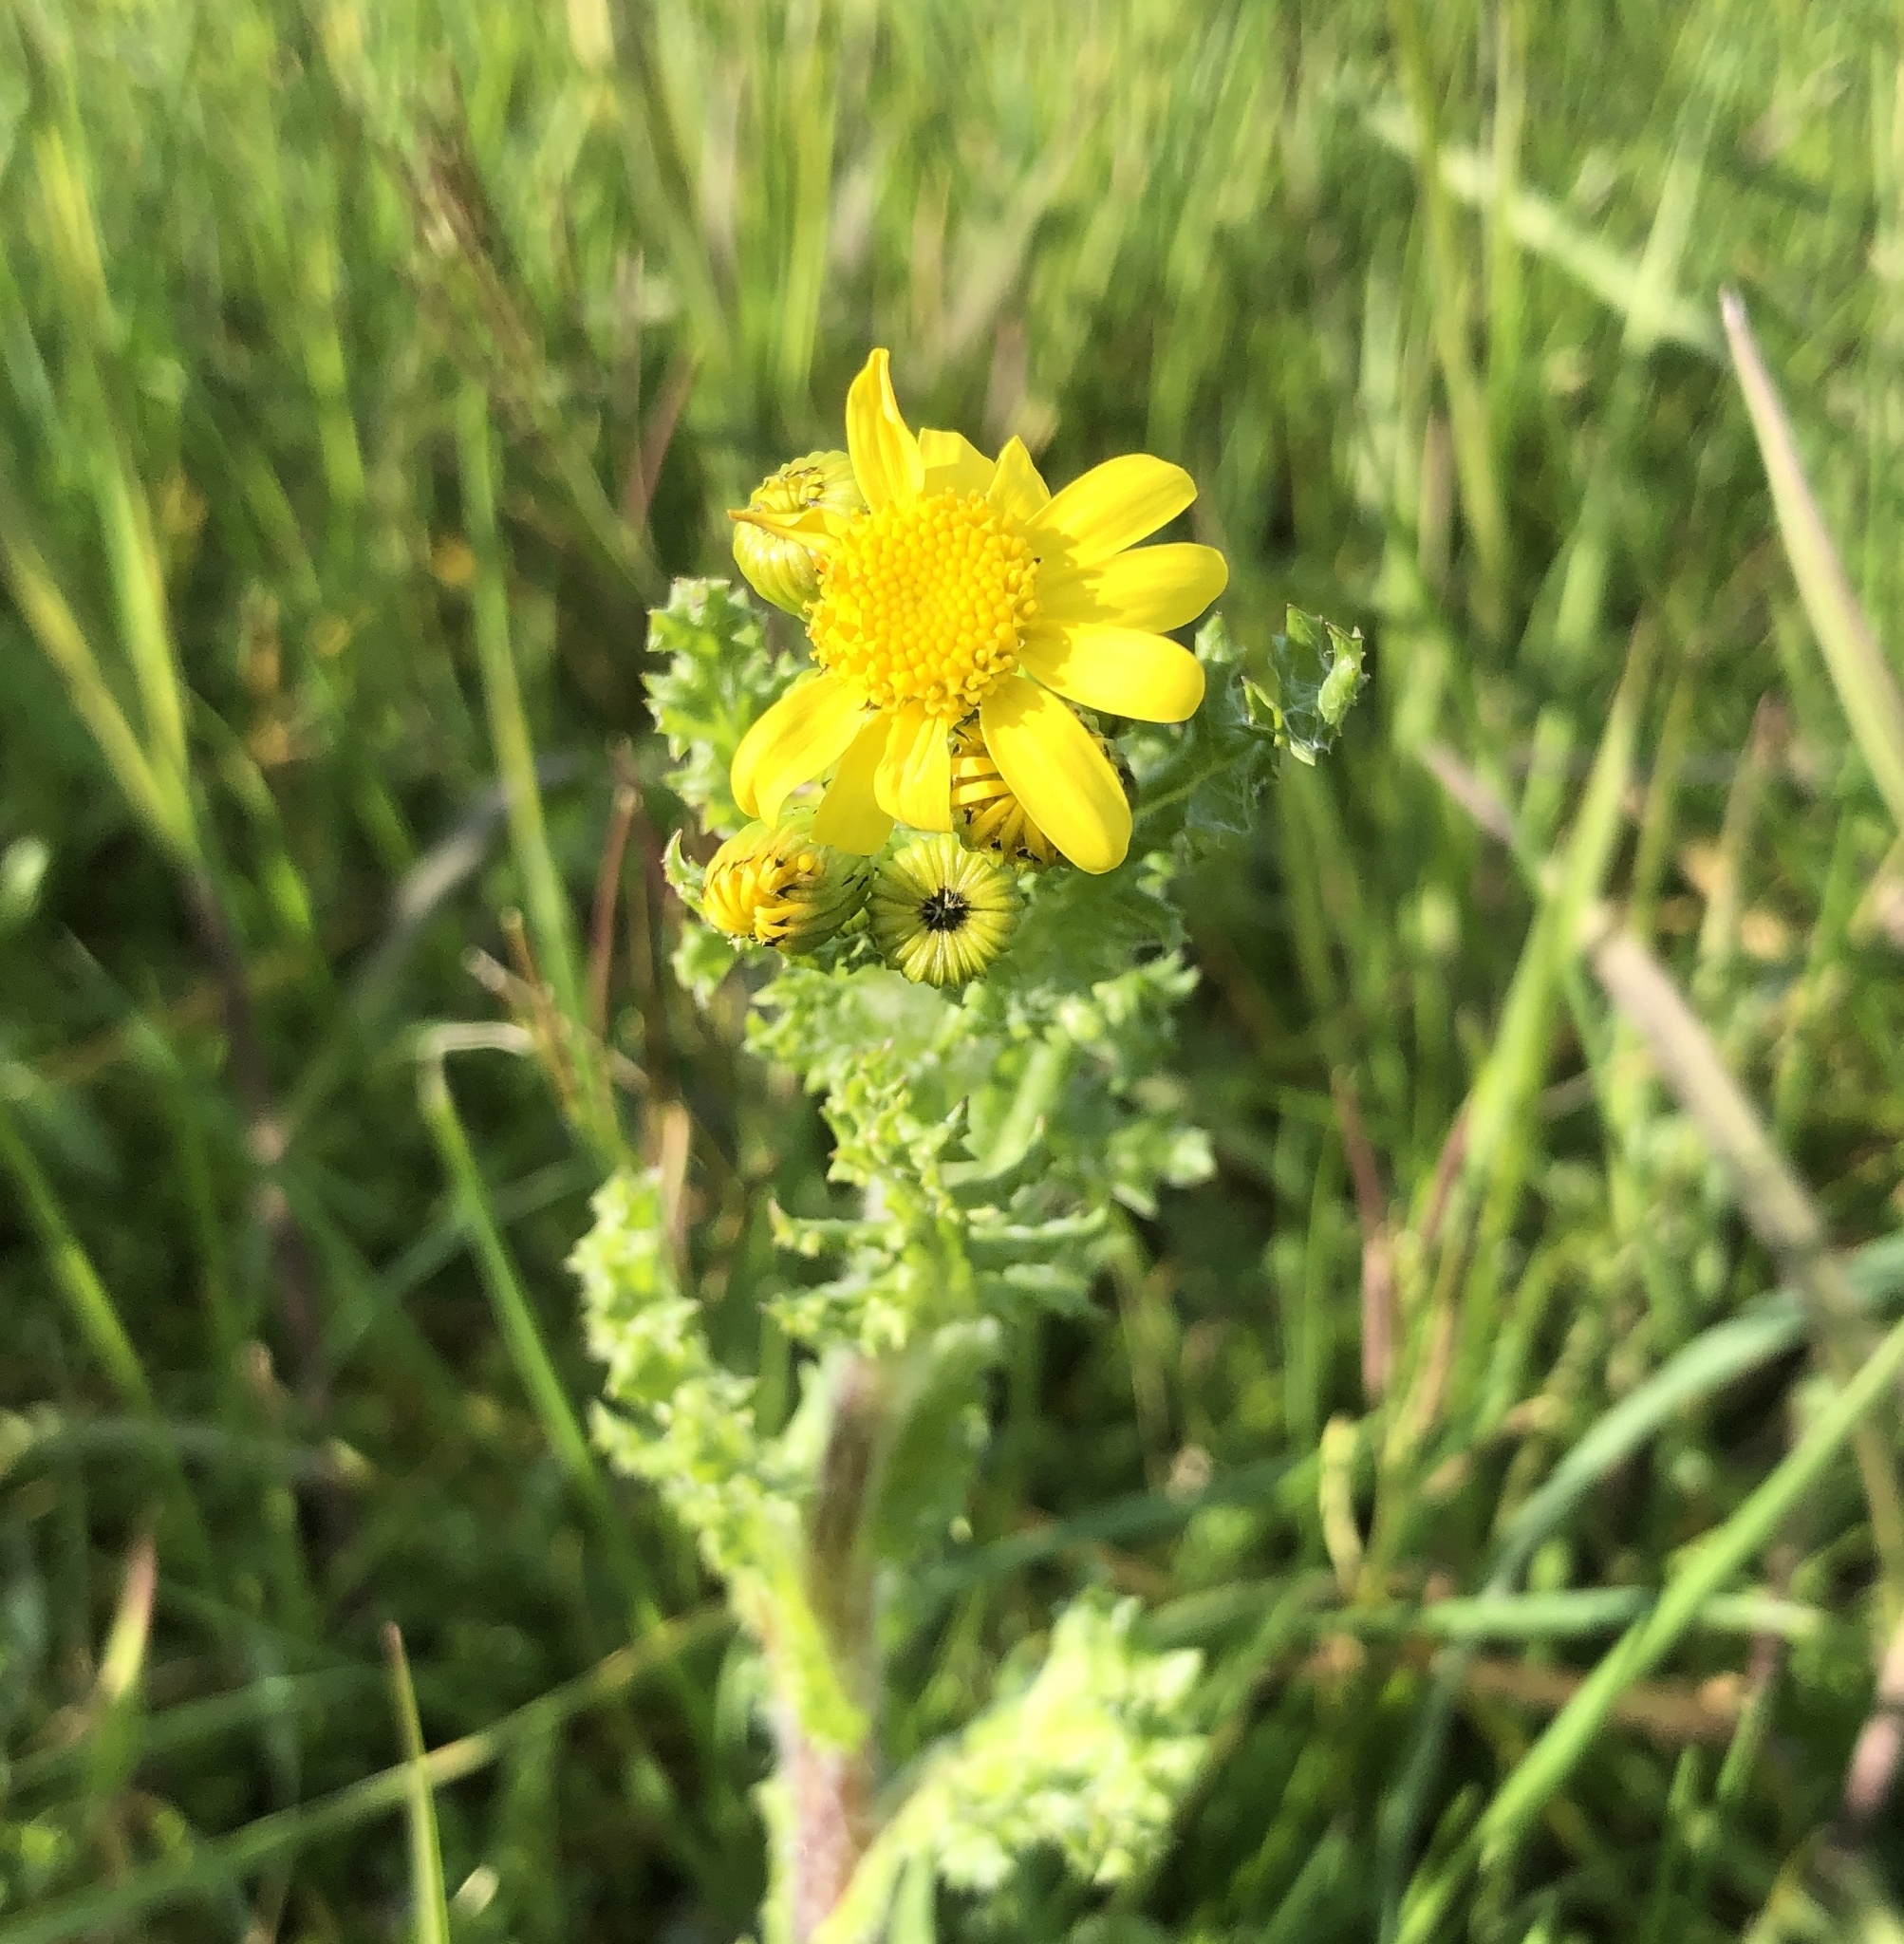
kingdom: Plantae
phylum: Tracheophyta
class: Magnoliopsida
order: Asterales
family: Asteraceae
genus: Senecio
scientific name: Senecio vernalis
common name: Eastern groundsel
